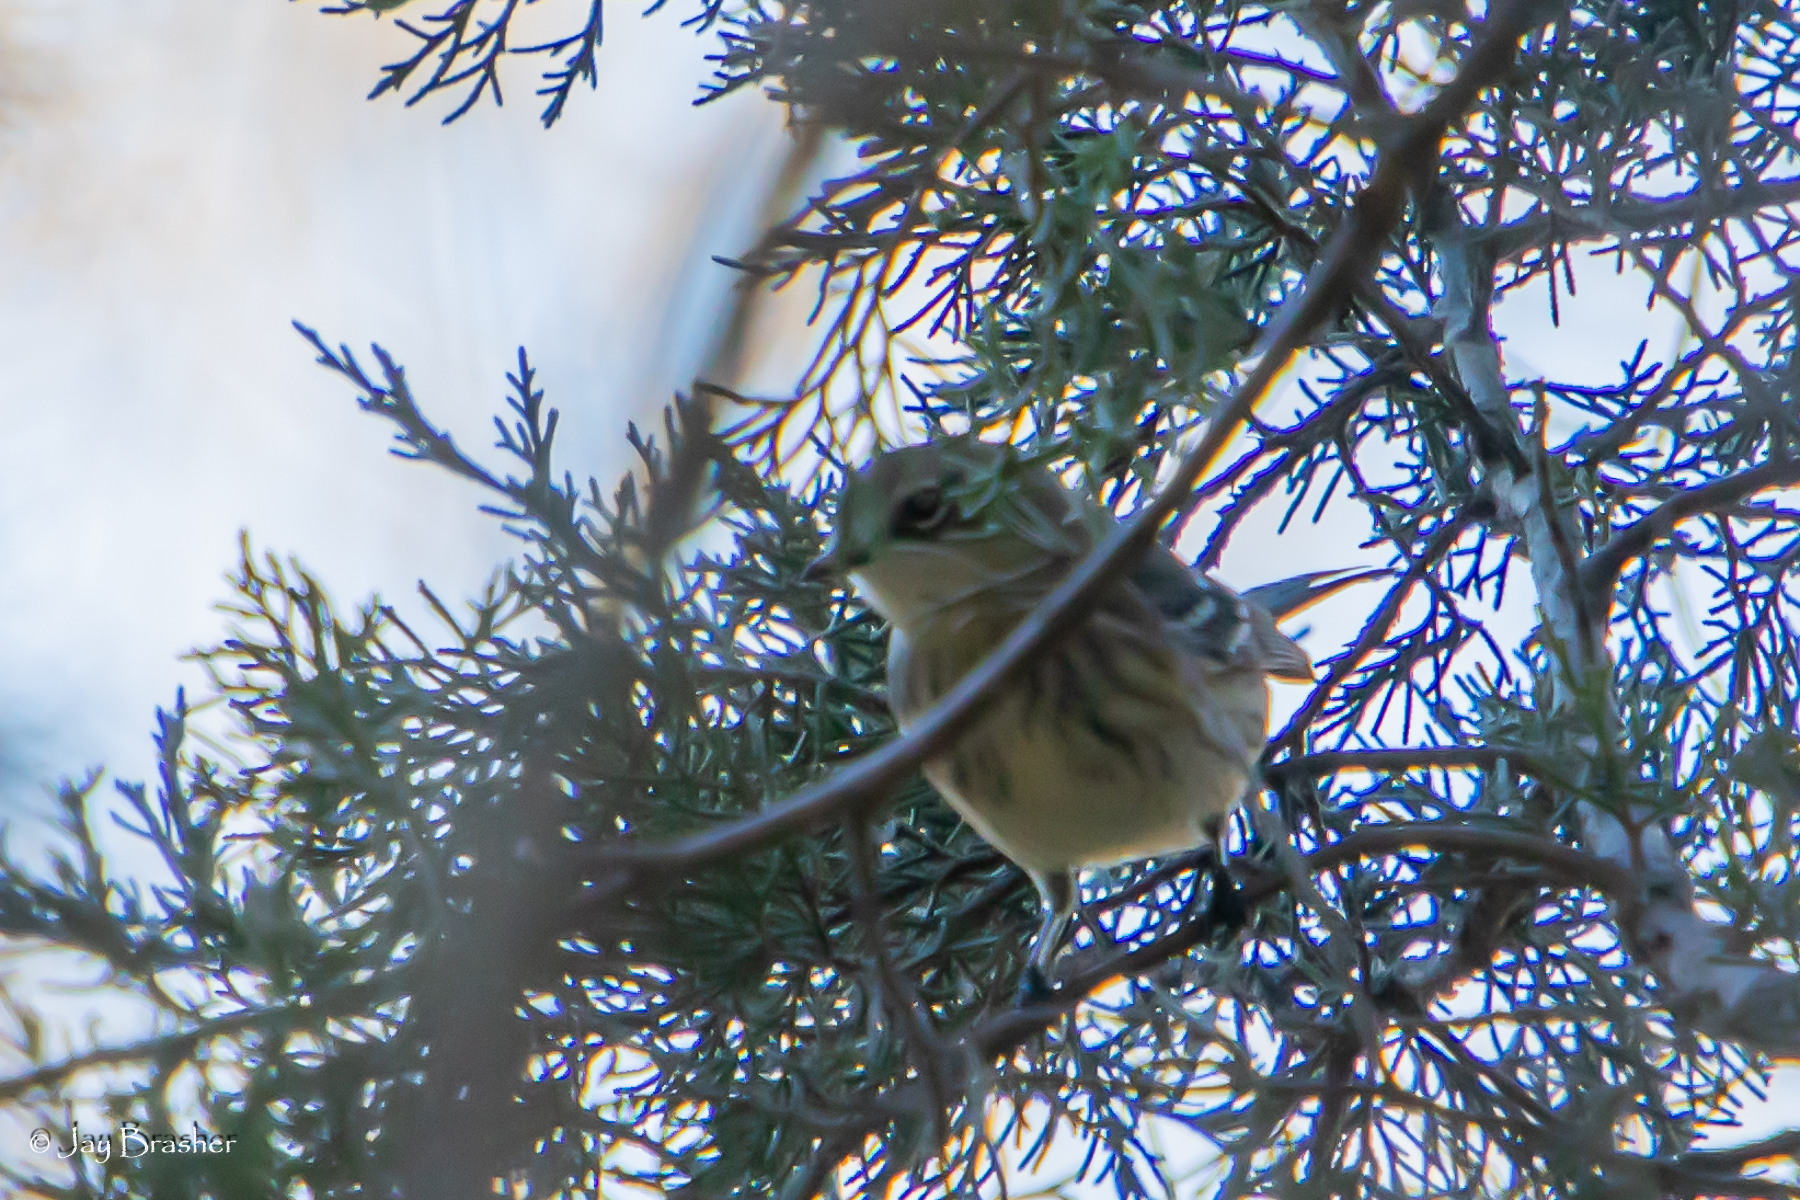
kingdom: Animalia
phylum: Chordata
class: Aves
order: Passeriformes
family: Parulidae
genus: Setophaga
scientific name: Setophaga coronata
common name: Myrtle warbler
